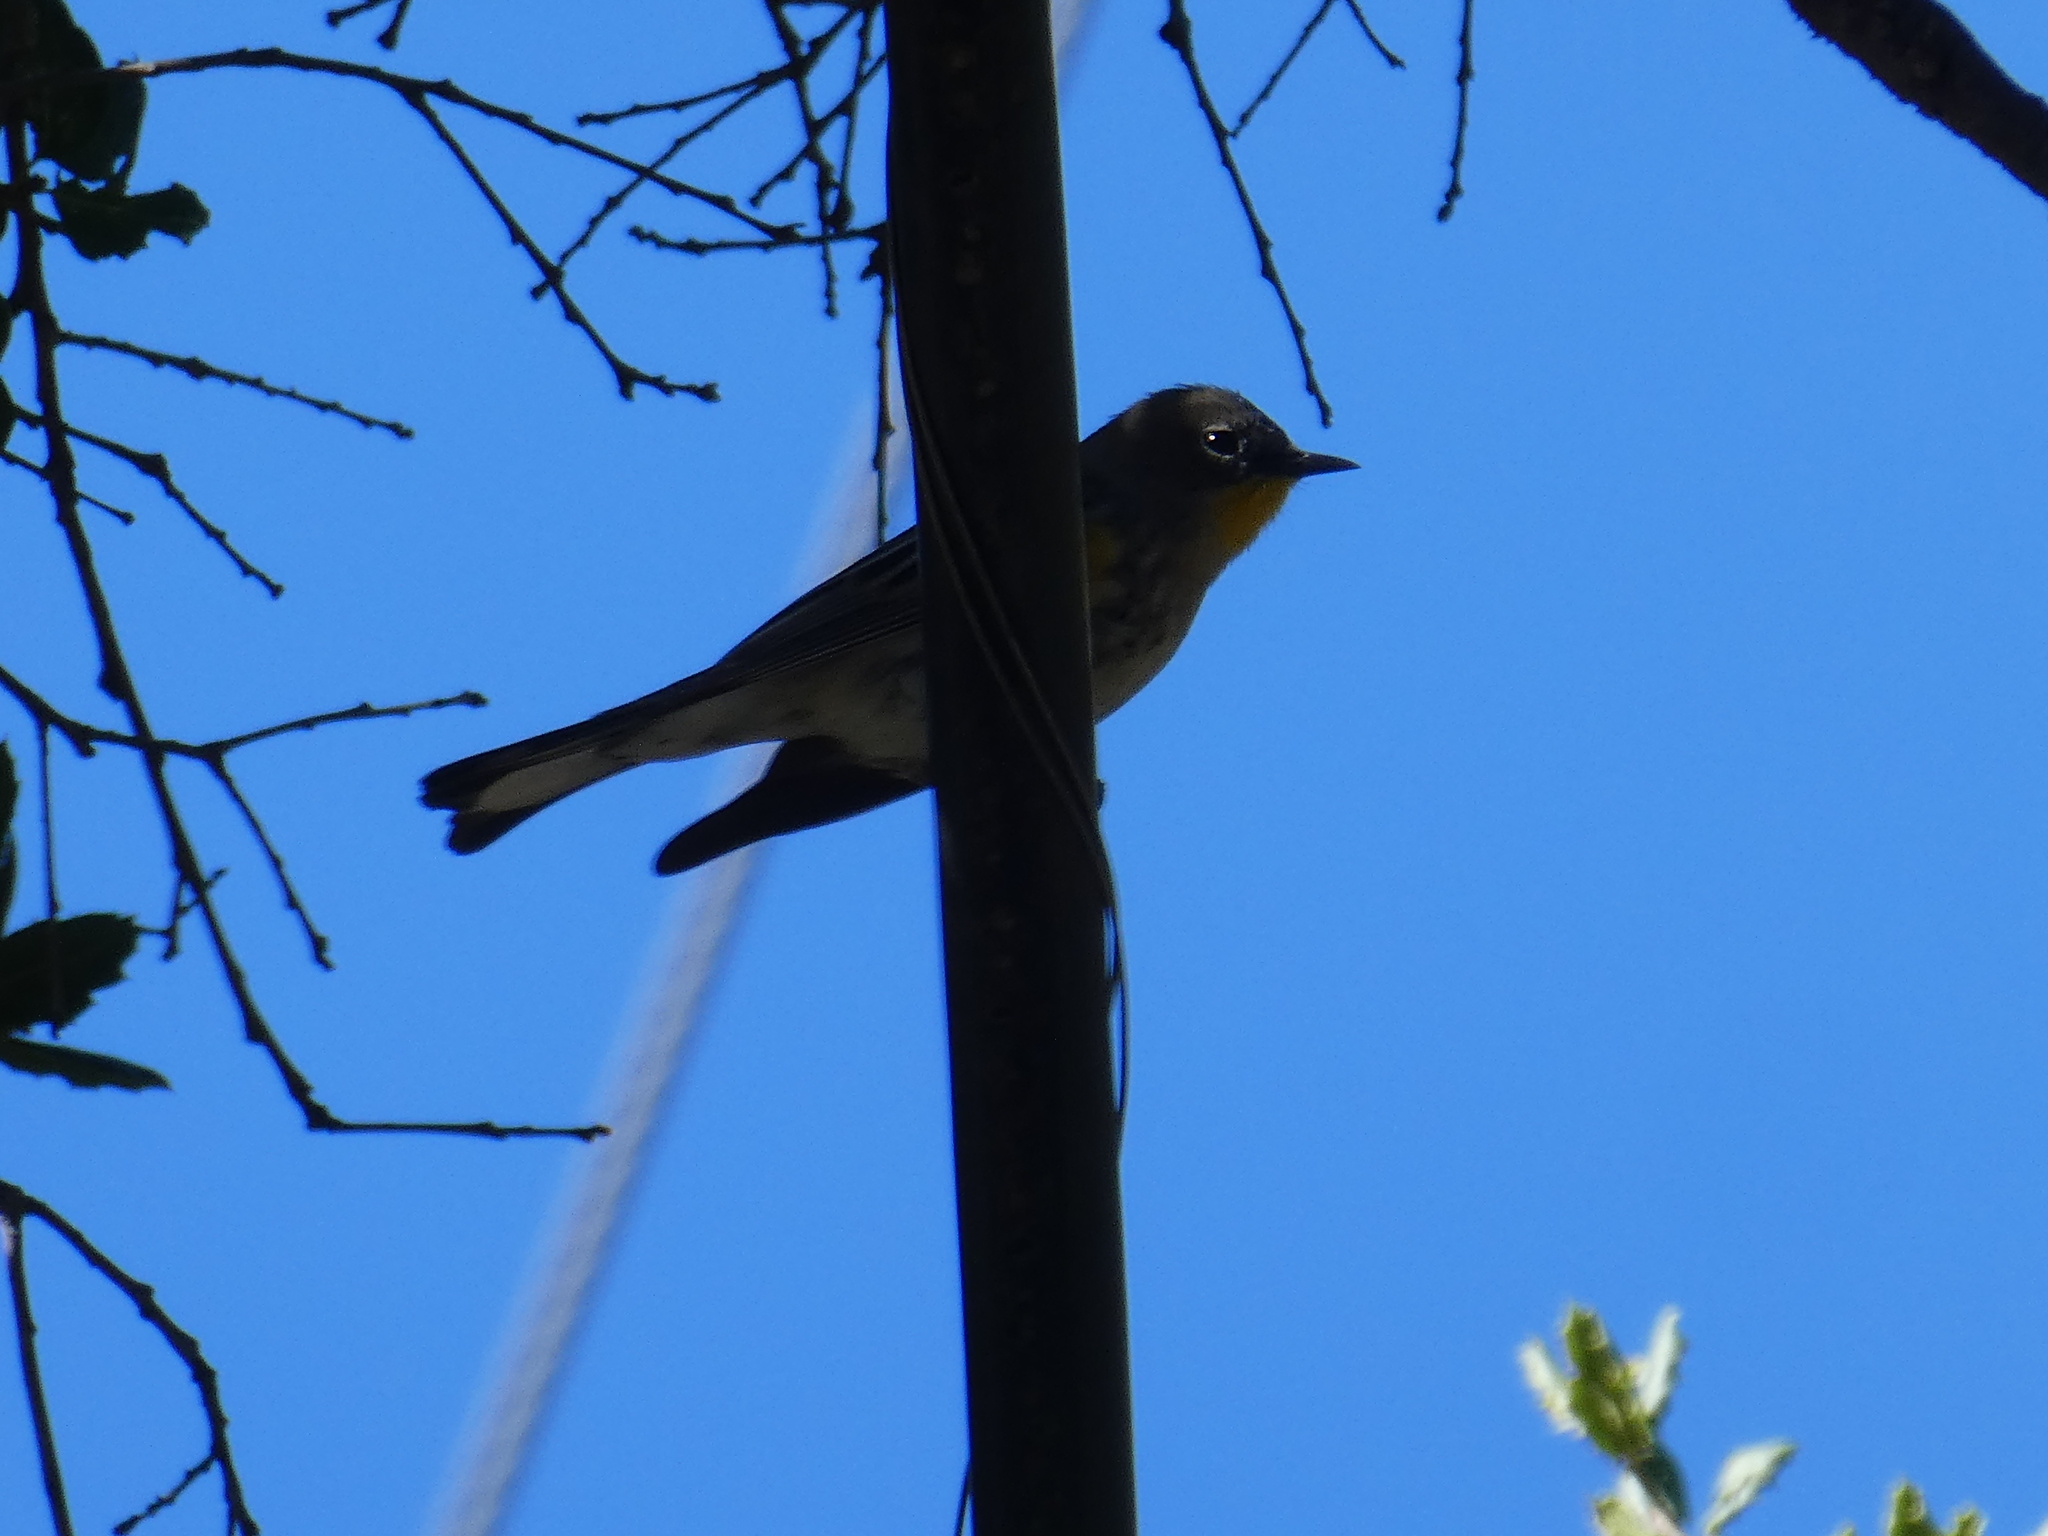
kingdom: Animalia
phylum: Chordata
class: Aves
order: Passeriformes
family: Parulidae
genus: Setophaga
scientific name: Setophaga coronata
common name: Myrtle warbler
